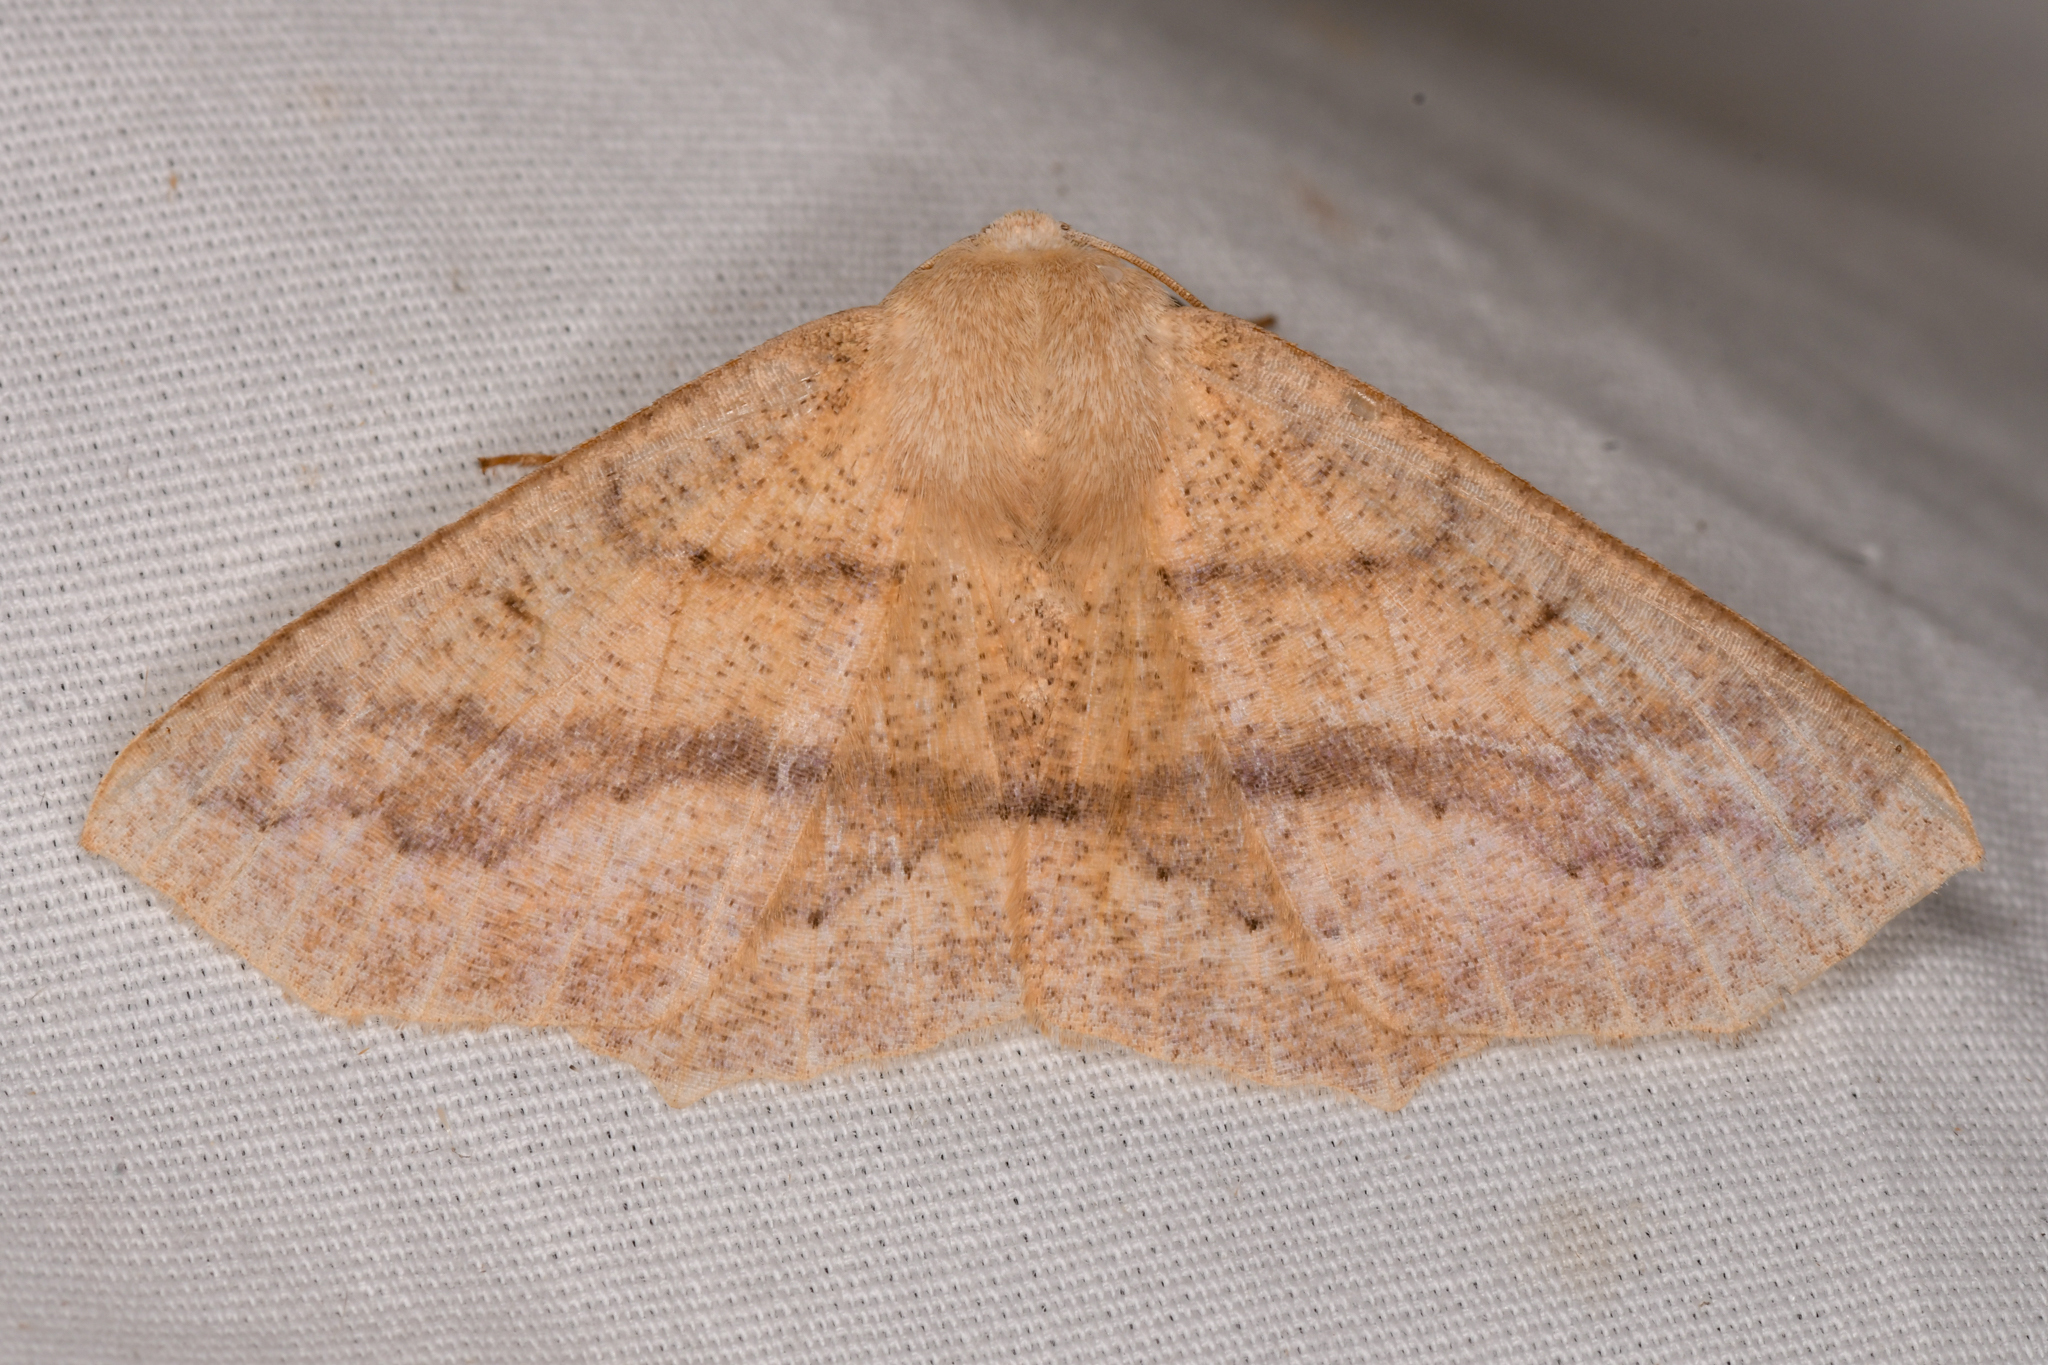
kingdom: Animalia
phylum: Arthropoda
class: Insecta
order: Lepidoptera
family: Geometridae
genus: Sabulodes
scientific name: Sabulodes aegrotata
